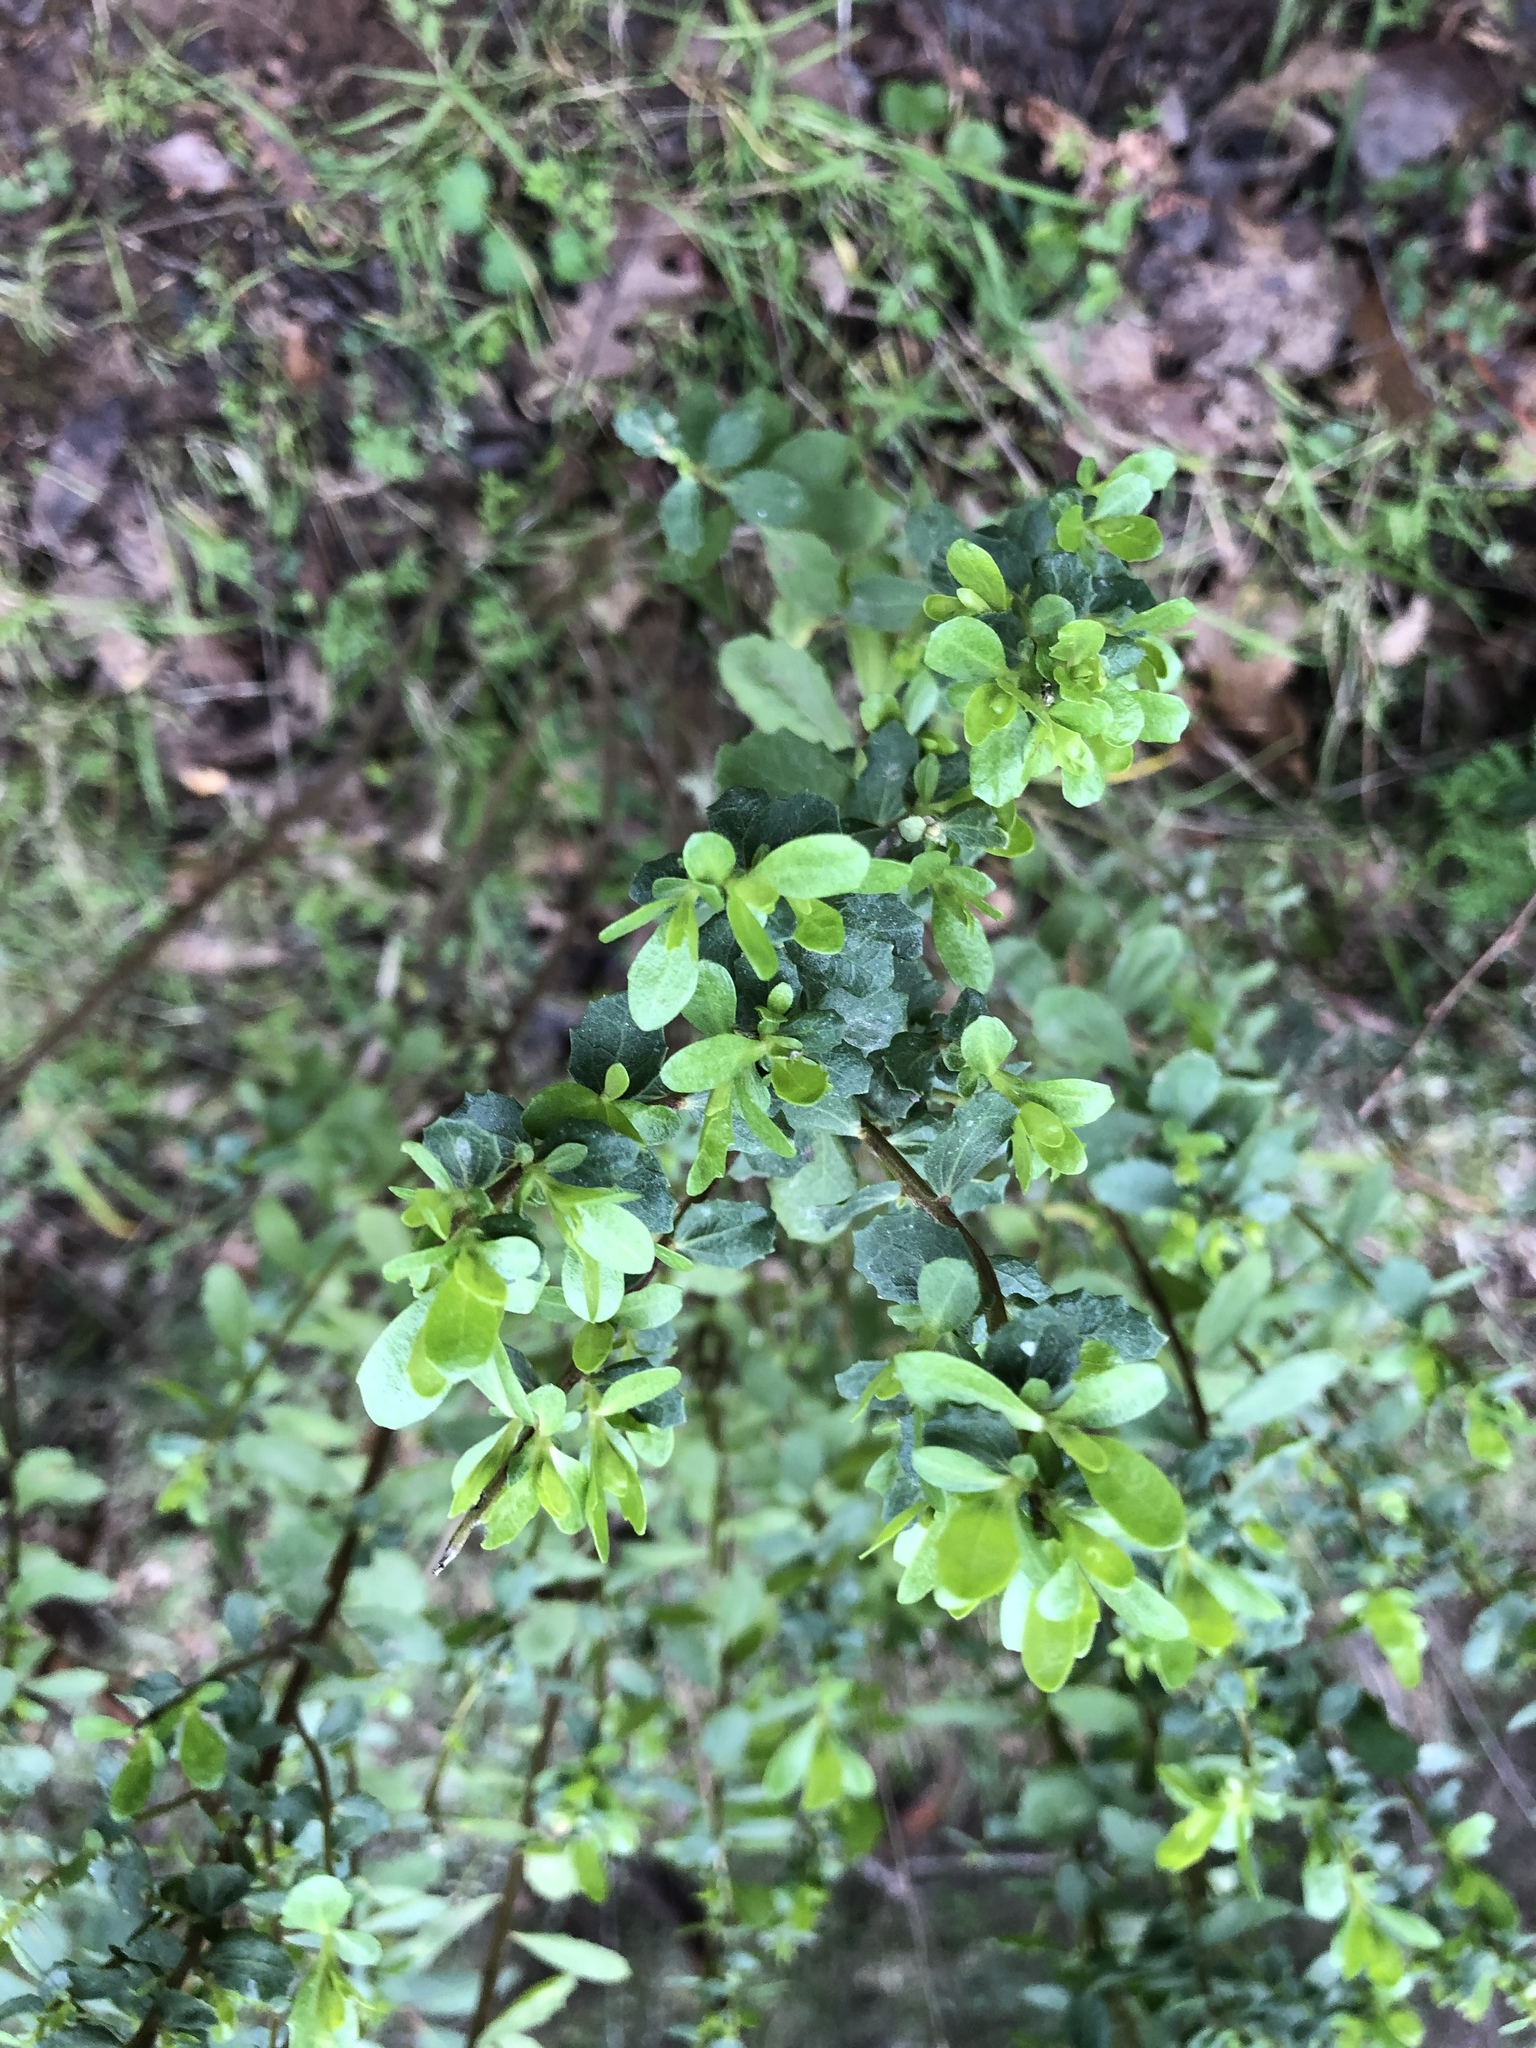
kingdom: Plantae
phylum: Tracheophyta
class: Magnoliopsida
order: Asterales
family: Asteraceae
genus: Baccharis
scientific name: Baccharis pilularis
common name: Coyotebrush
